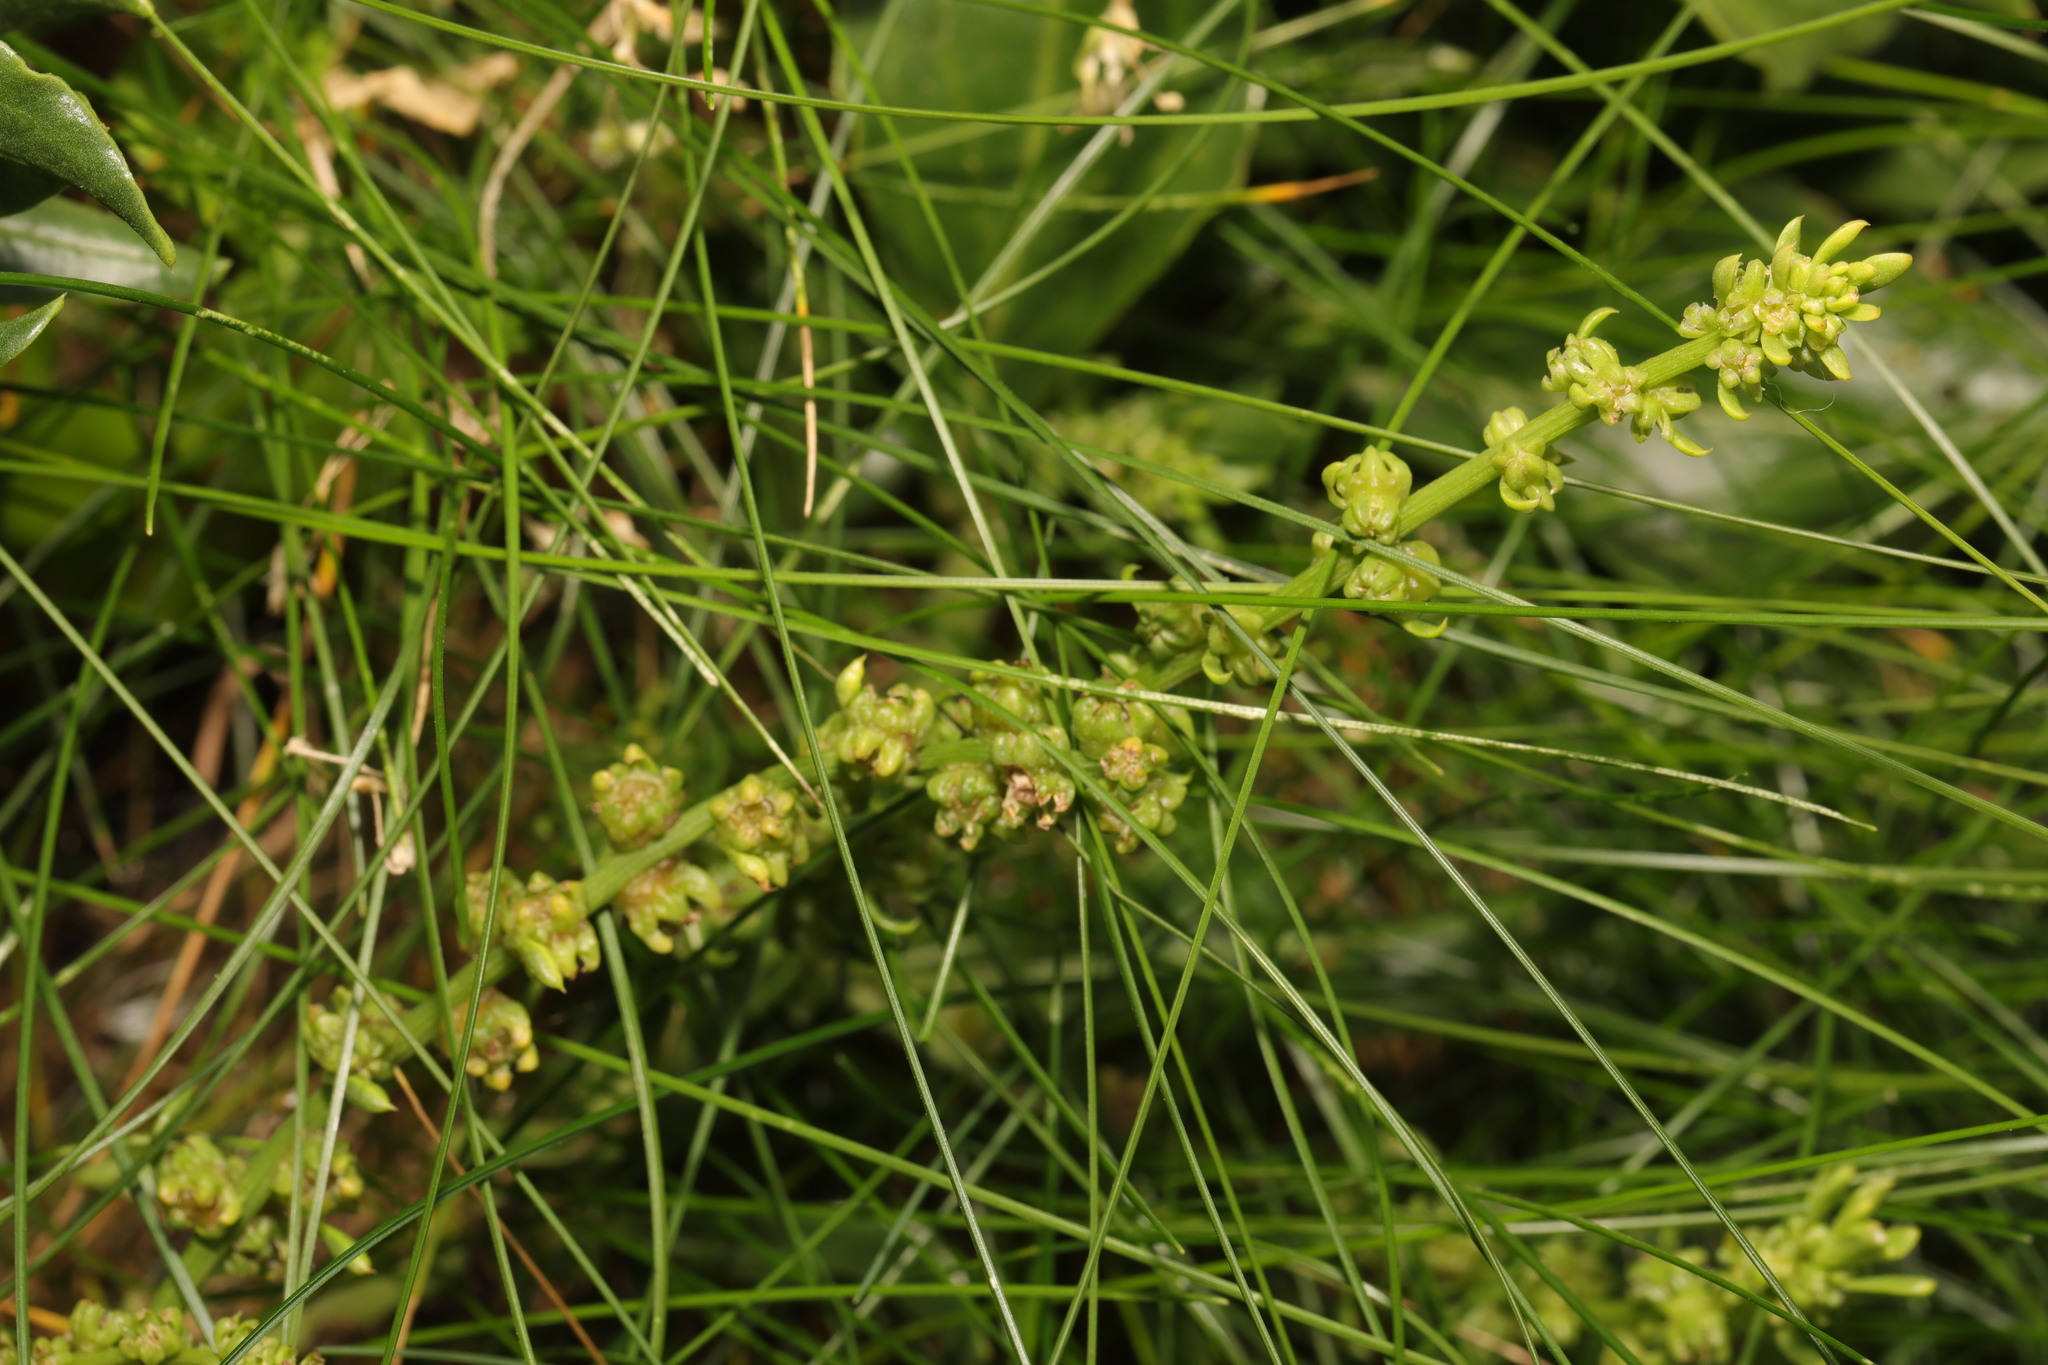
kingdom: Plantae
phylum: Tracheophyta
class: Magnoliopsida
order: Caryophyllales
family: Amaranthaceae
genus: Beta
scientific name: Beta vulgaris
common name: Beet
